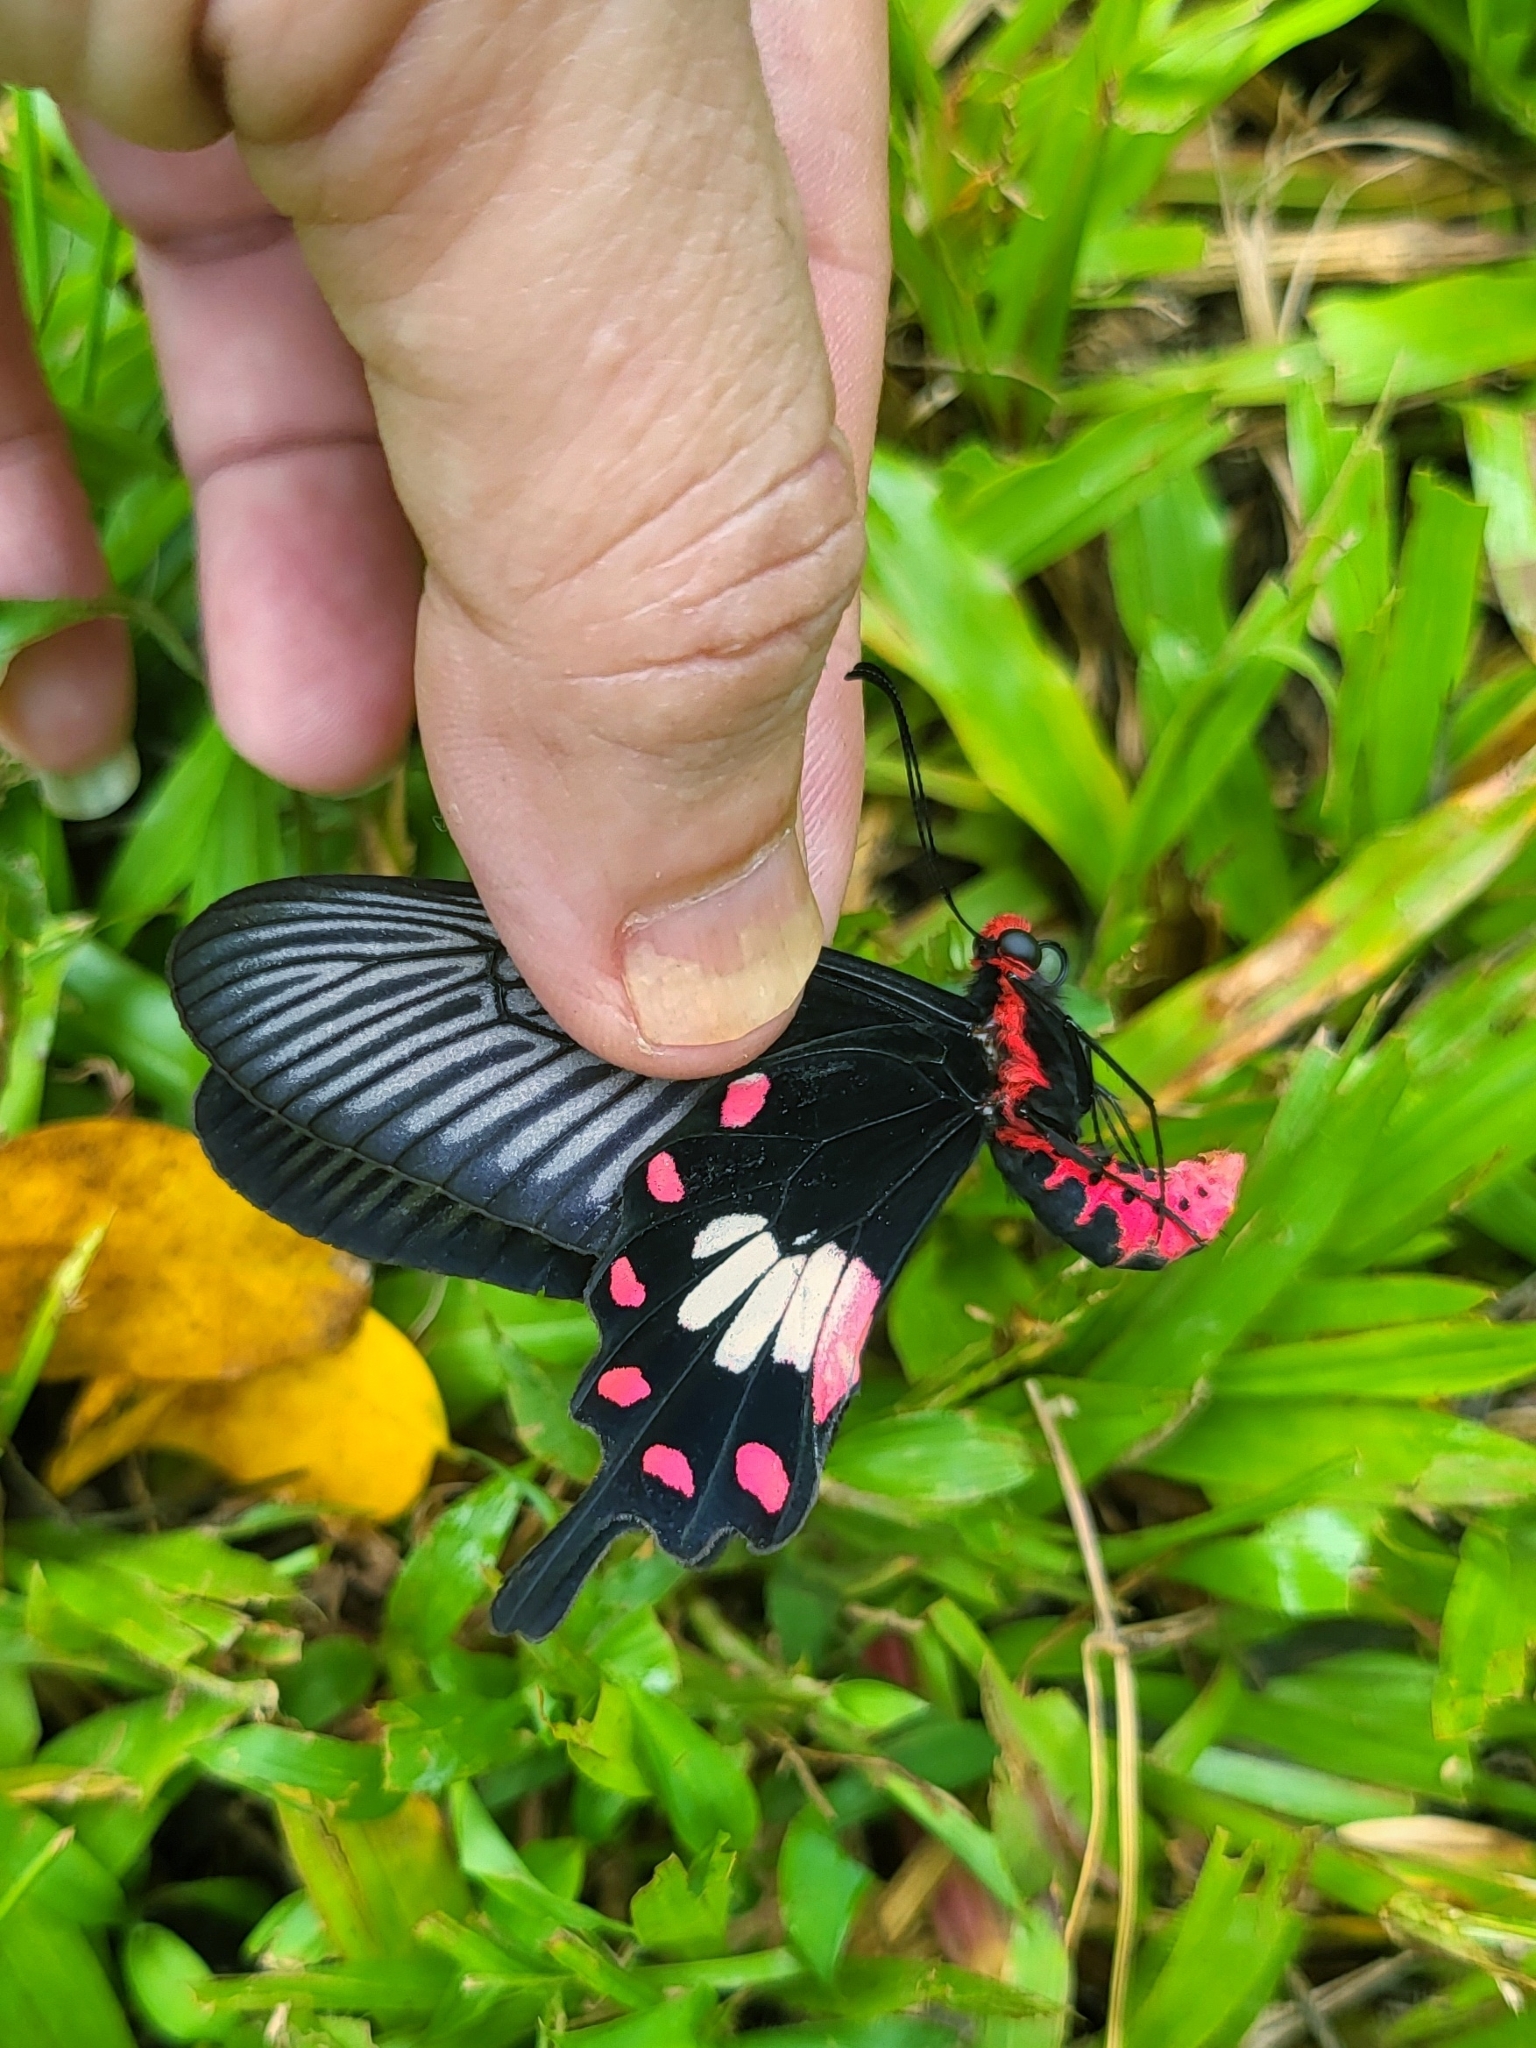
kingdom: Animalia
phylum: Arthropoda
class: Insecta
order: Lepidoptera
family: Papilionidae
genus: Pachliopta
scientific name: Pachliopta aristolochiae
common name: Common rose
